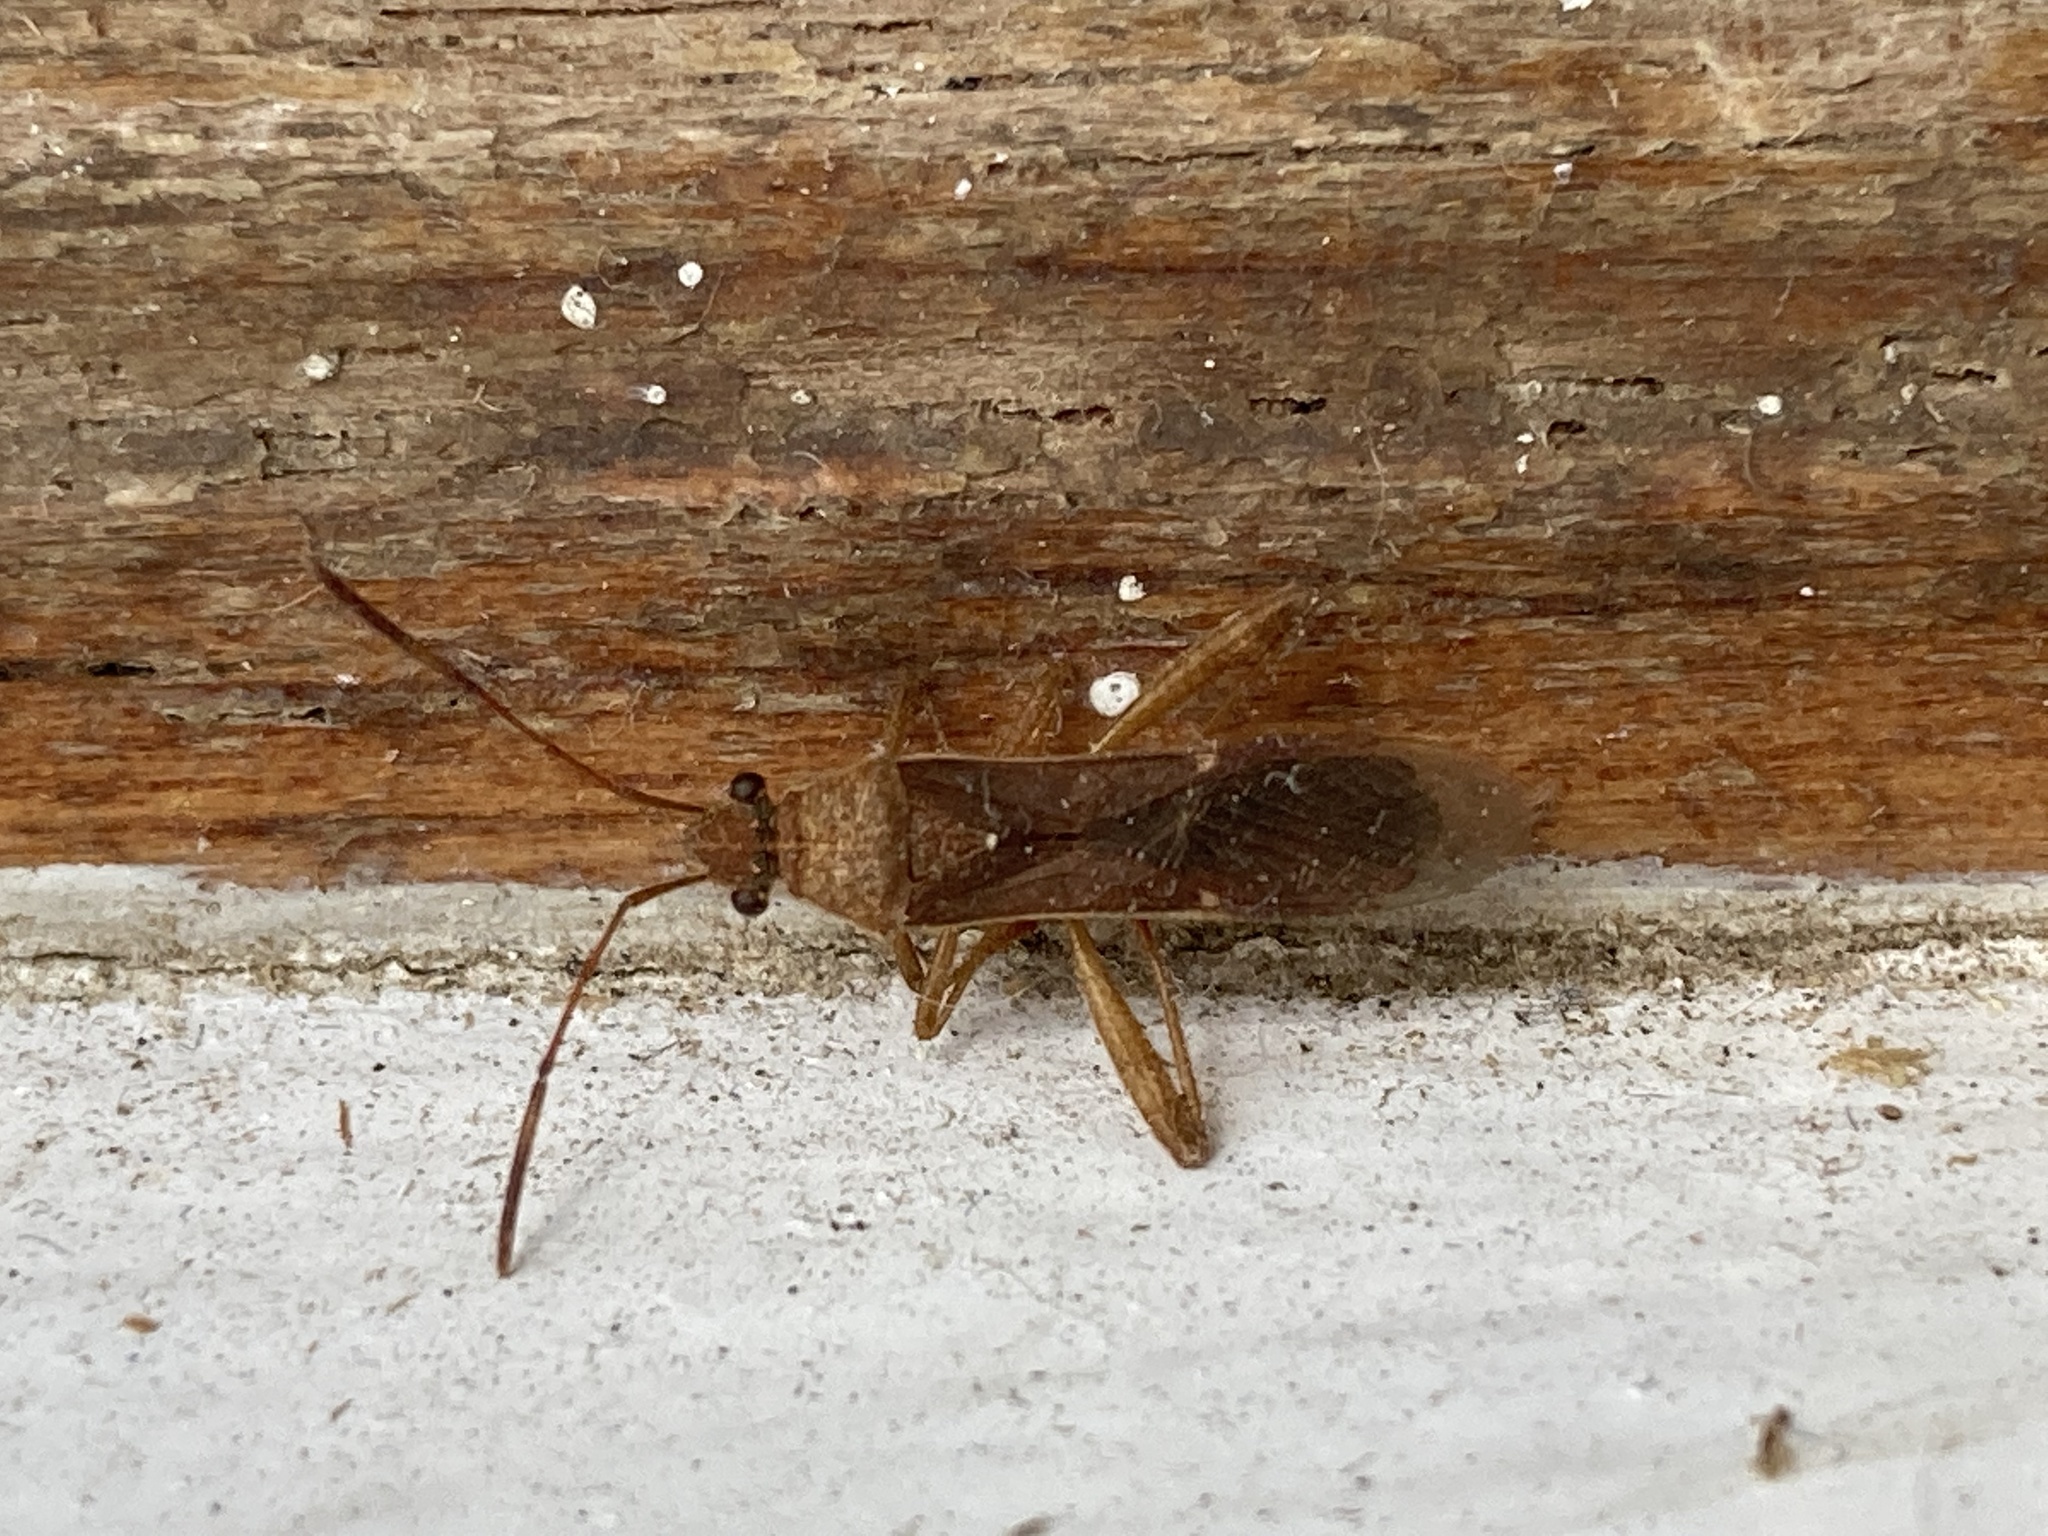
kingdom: Animalia
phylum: Arthropoda
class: Insecta
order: Hemiptera
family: Alydidae
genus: Burtinus
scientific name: Burtinus notatipennis
